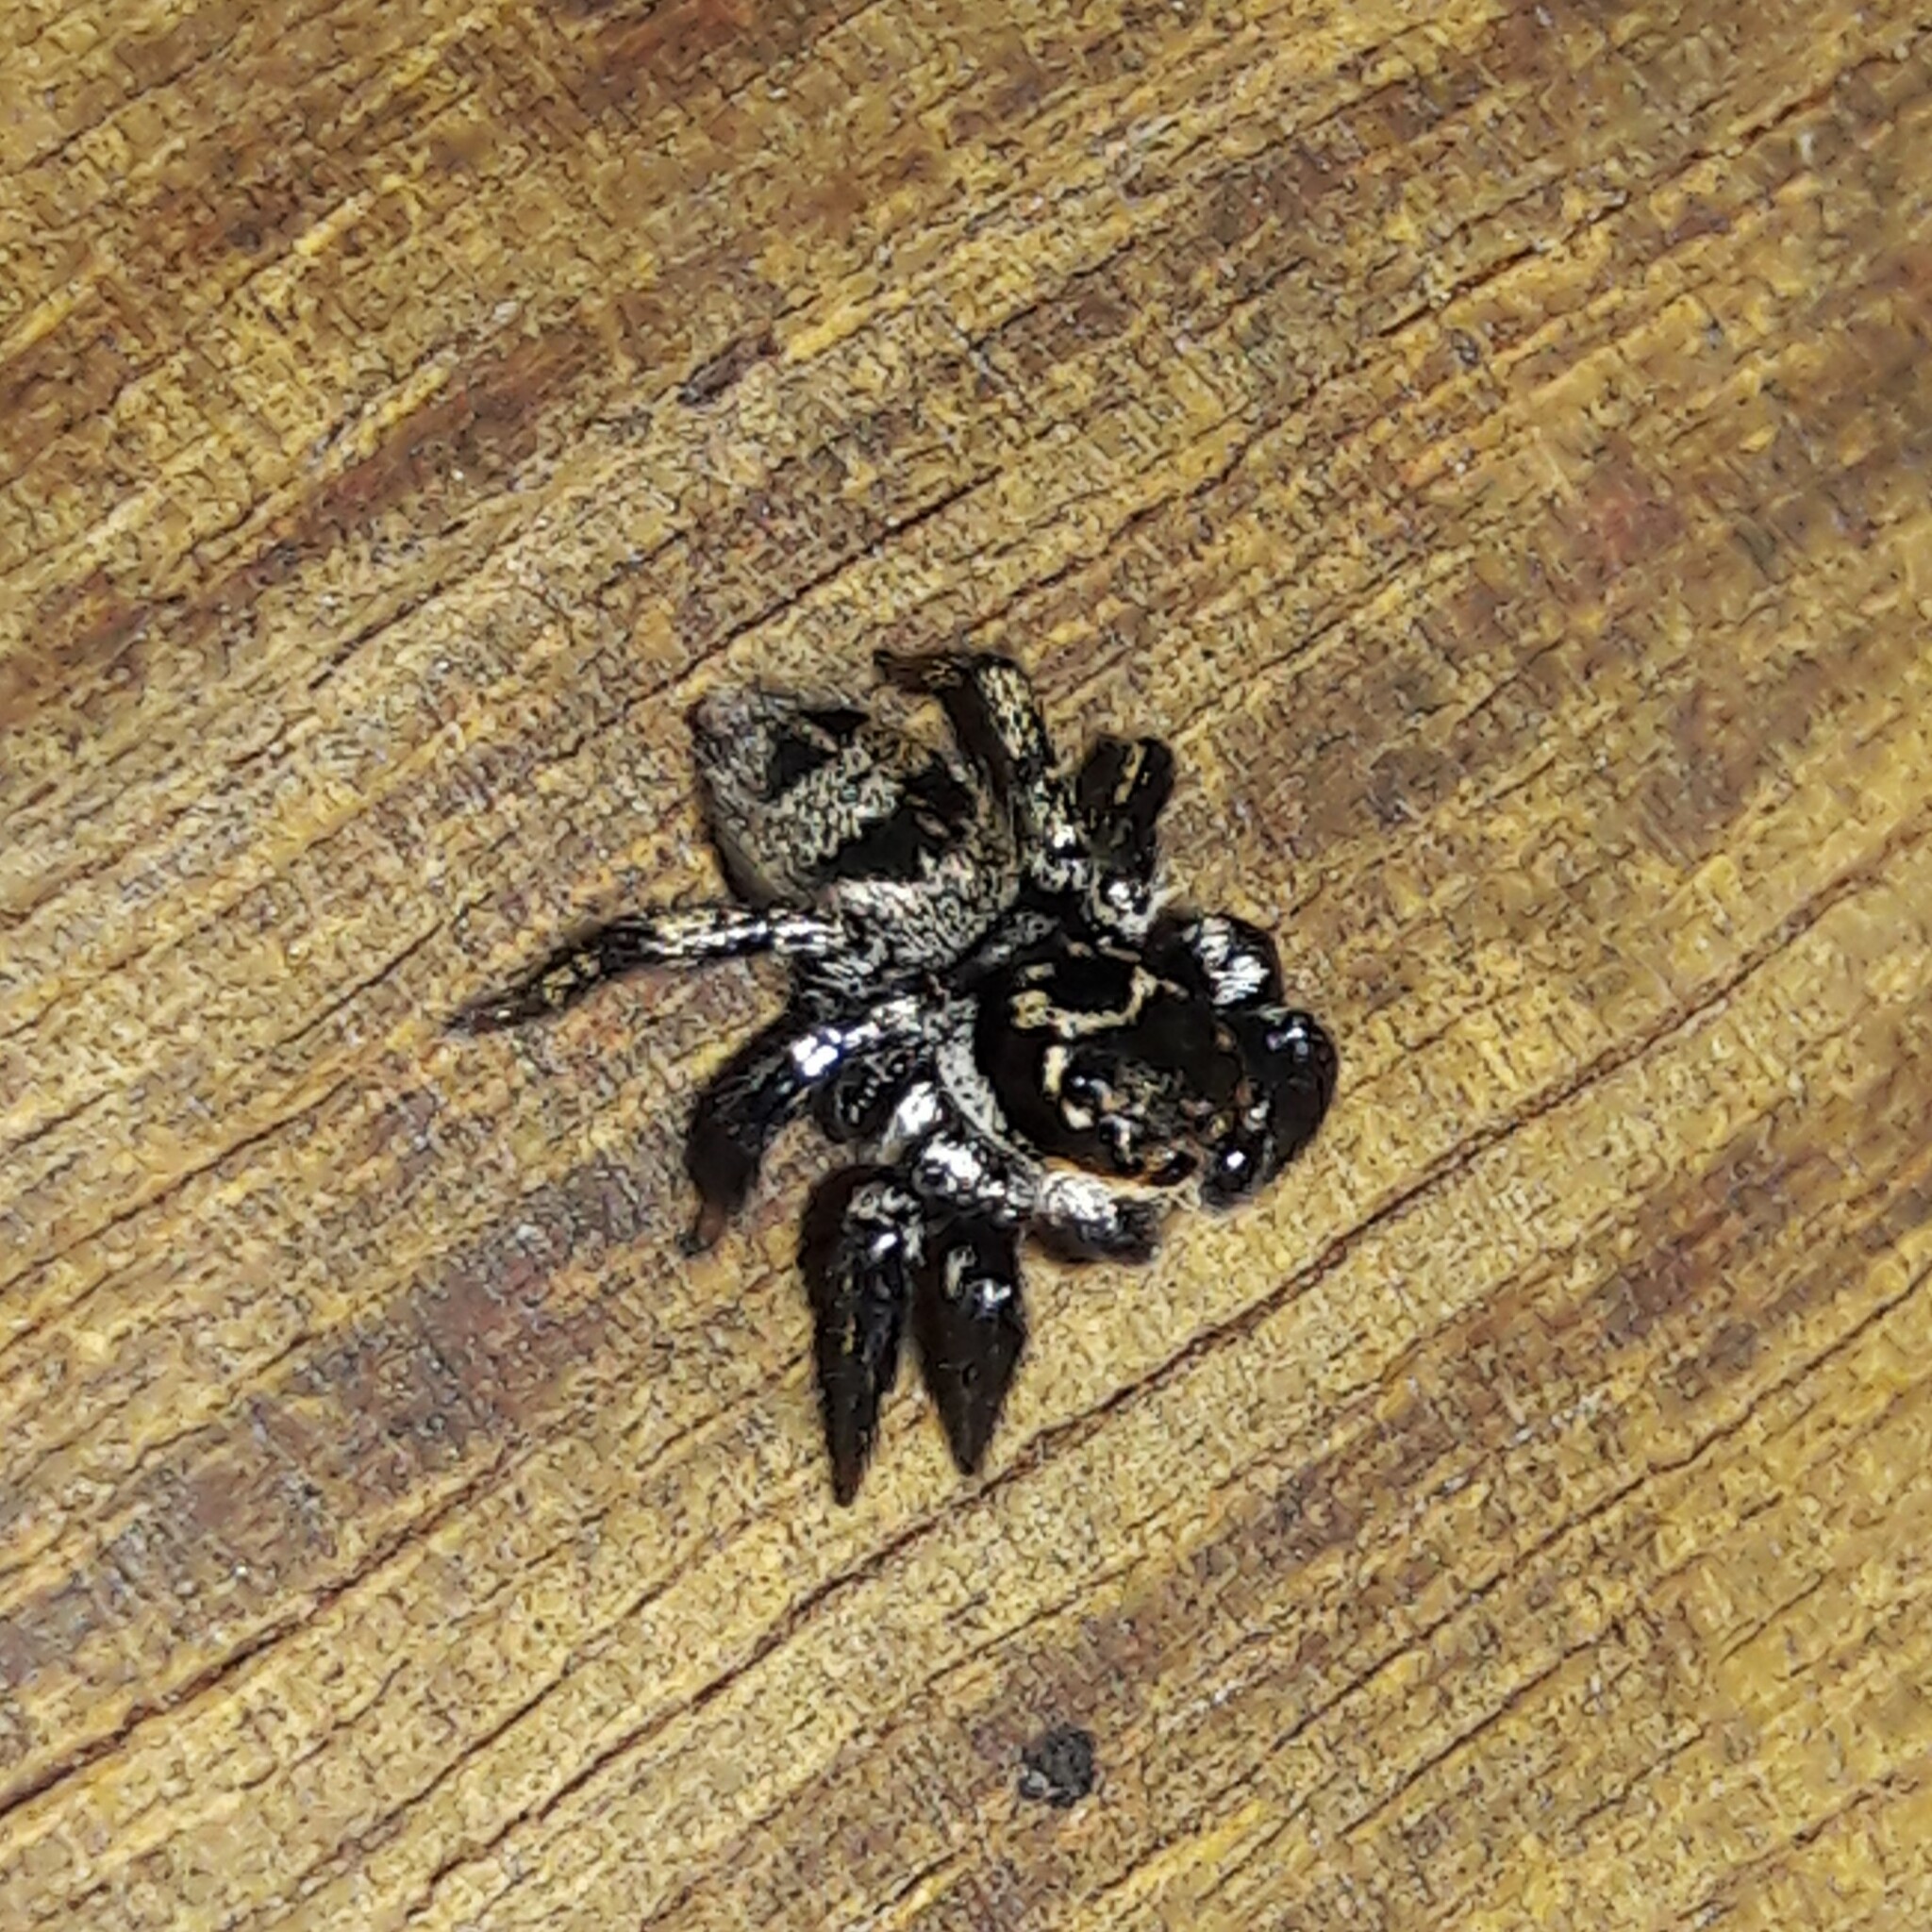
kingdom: Animalia
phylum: Arthropoda
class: Arachnida
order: Araneae
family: Salticidae
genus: Corythalia
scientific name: Corythalia conferta
